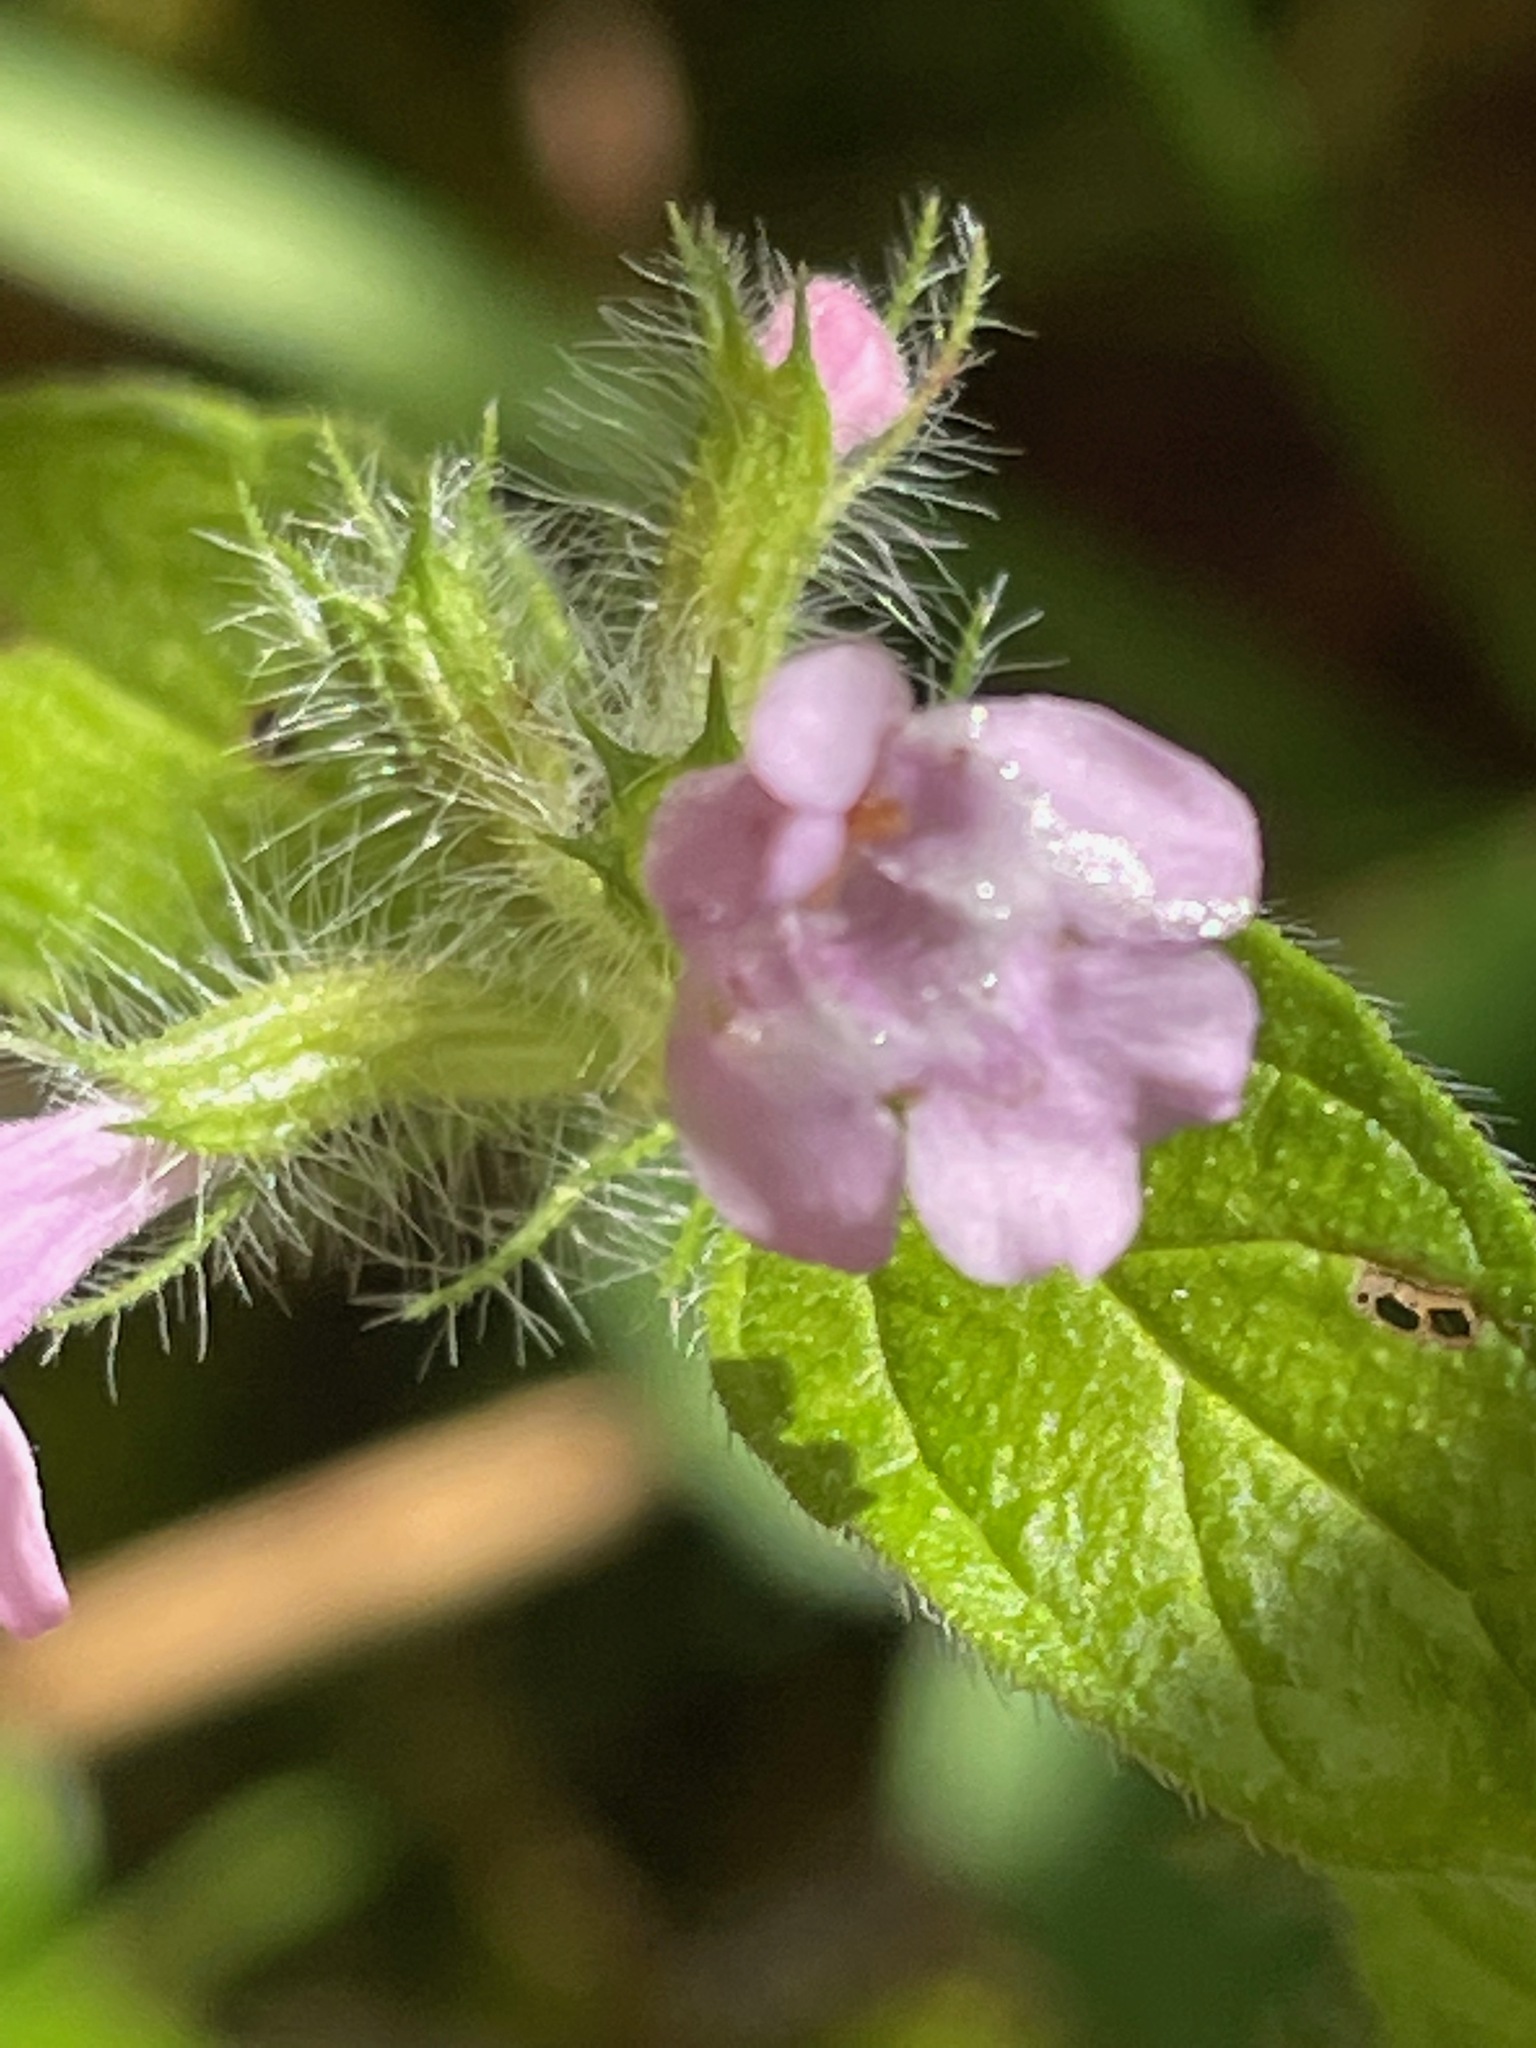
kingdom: Plantae
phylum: Tracheophyta
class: Magnoliopsida
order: Lamiales
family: Lamiaceae
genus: Clinopodium
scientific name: Clinopodium vulgare
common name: Wild basil
